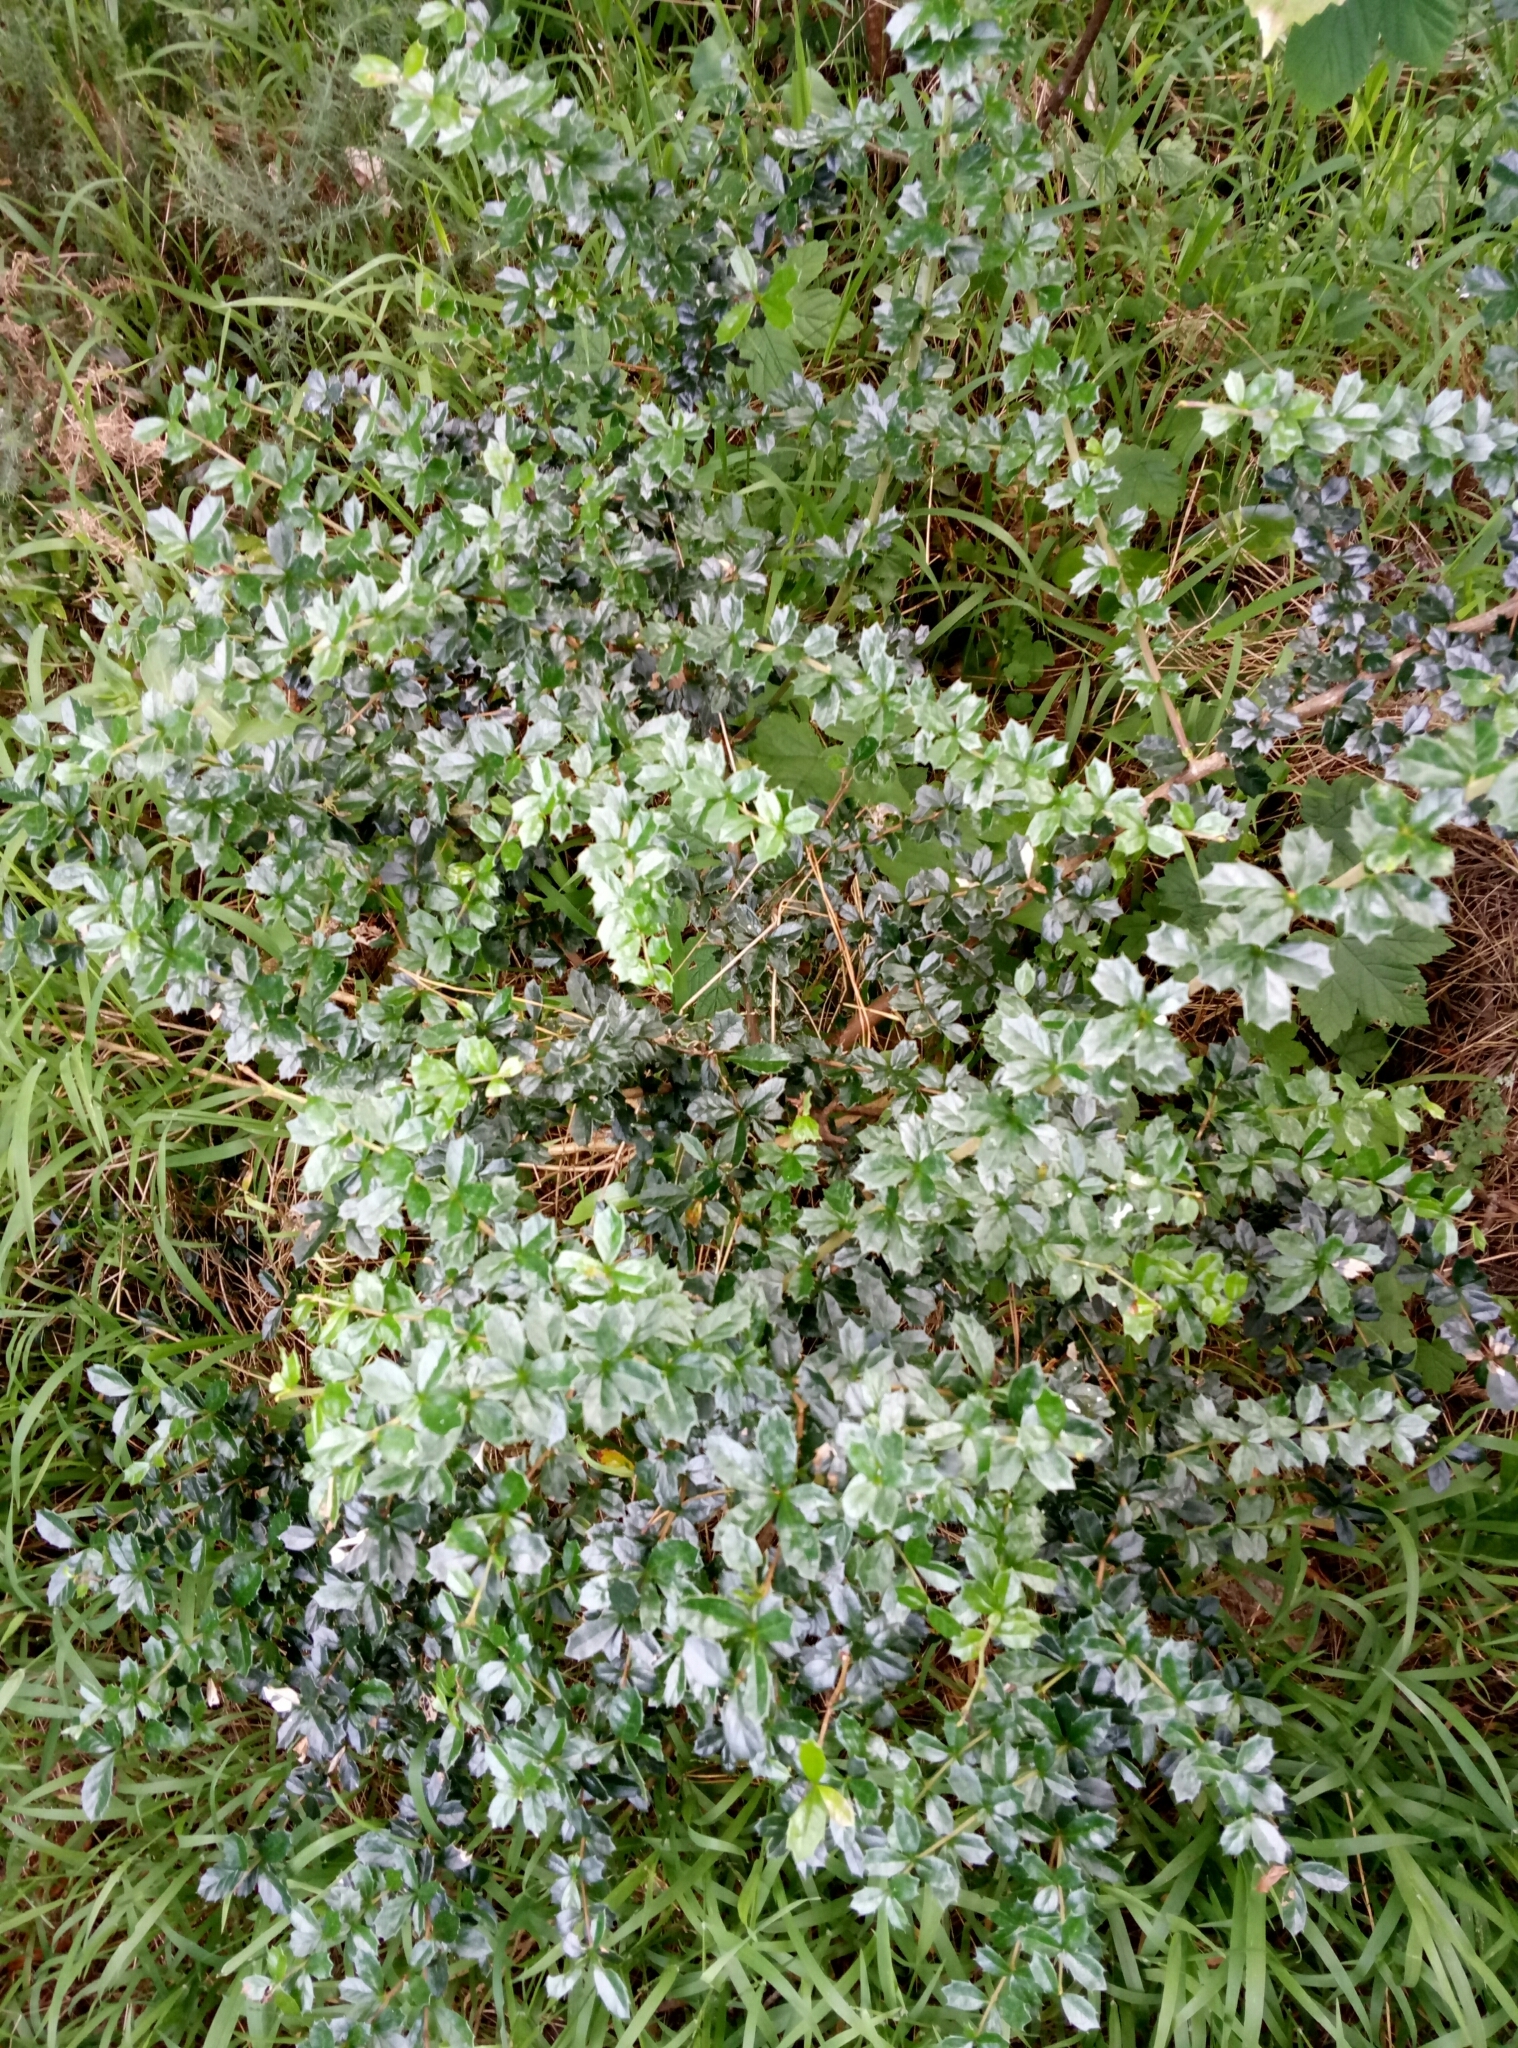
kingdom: Plantae
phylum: Tracheophyta
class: Magnoliopsida
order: Ranunculales
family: Berberidaceae
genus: Berberis
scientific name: Berberis darwinii
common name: Darwin's barberry
